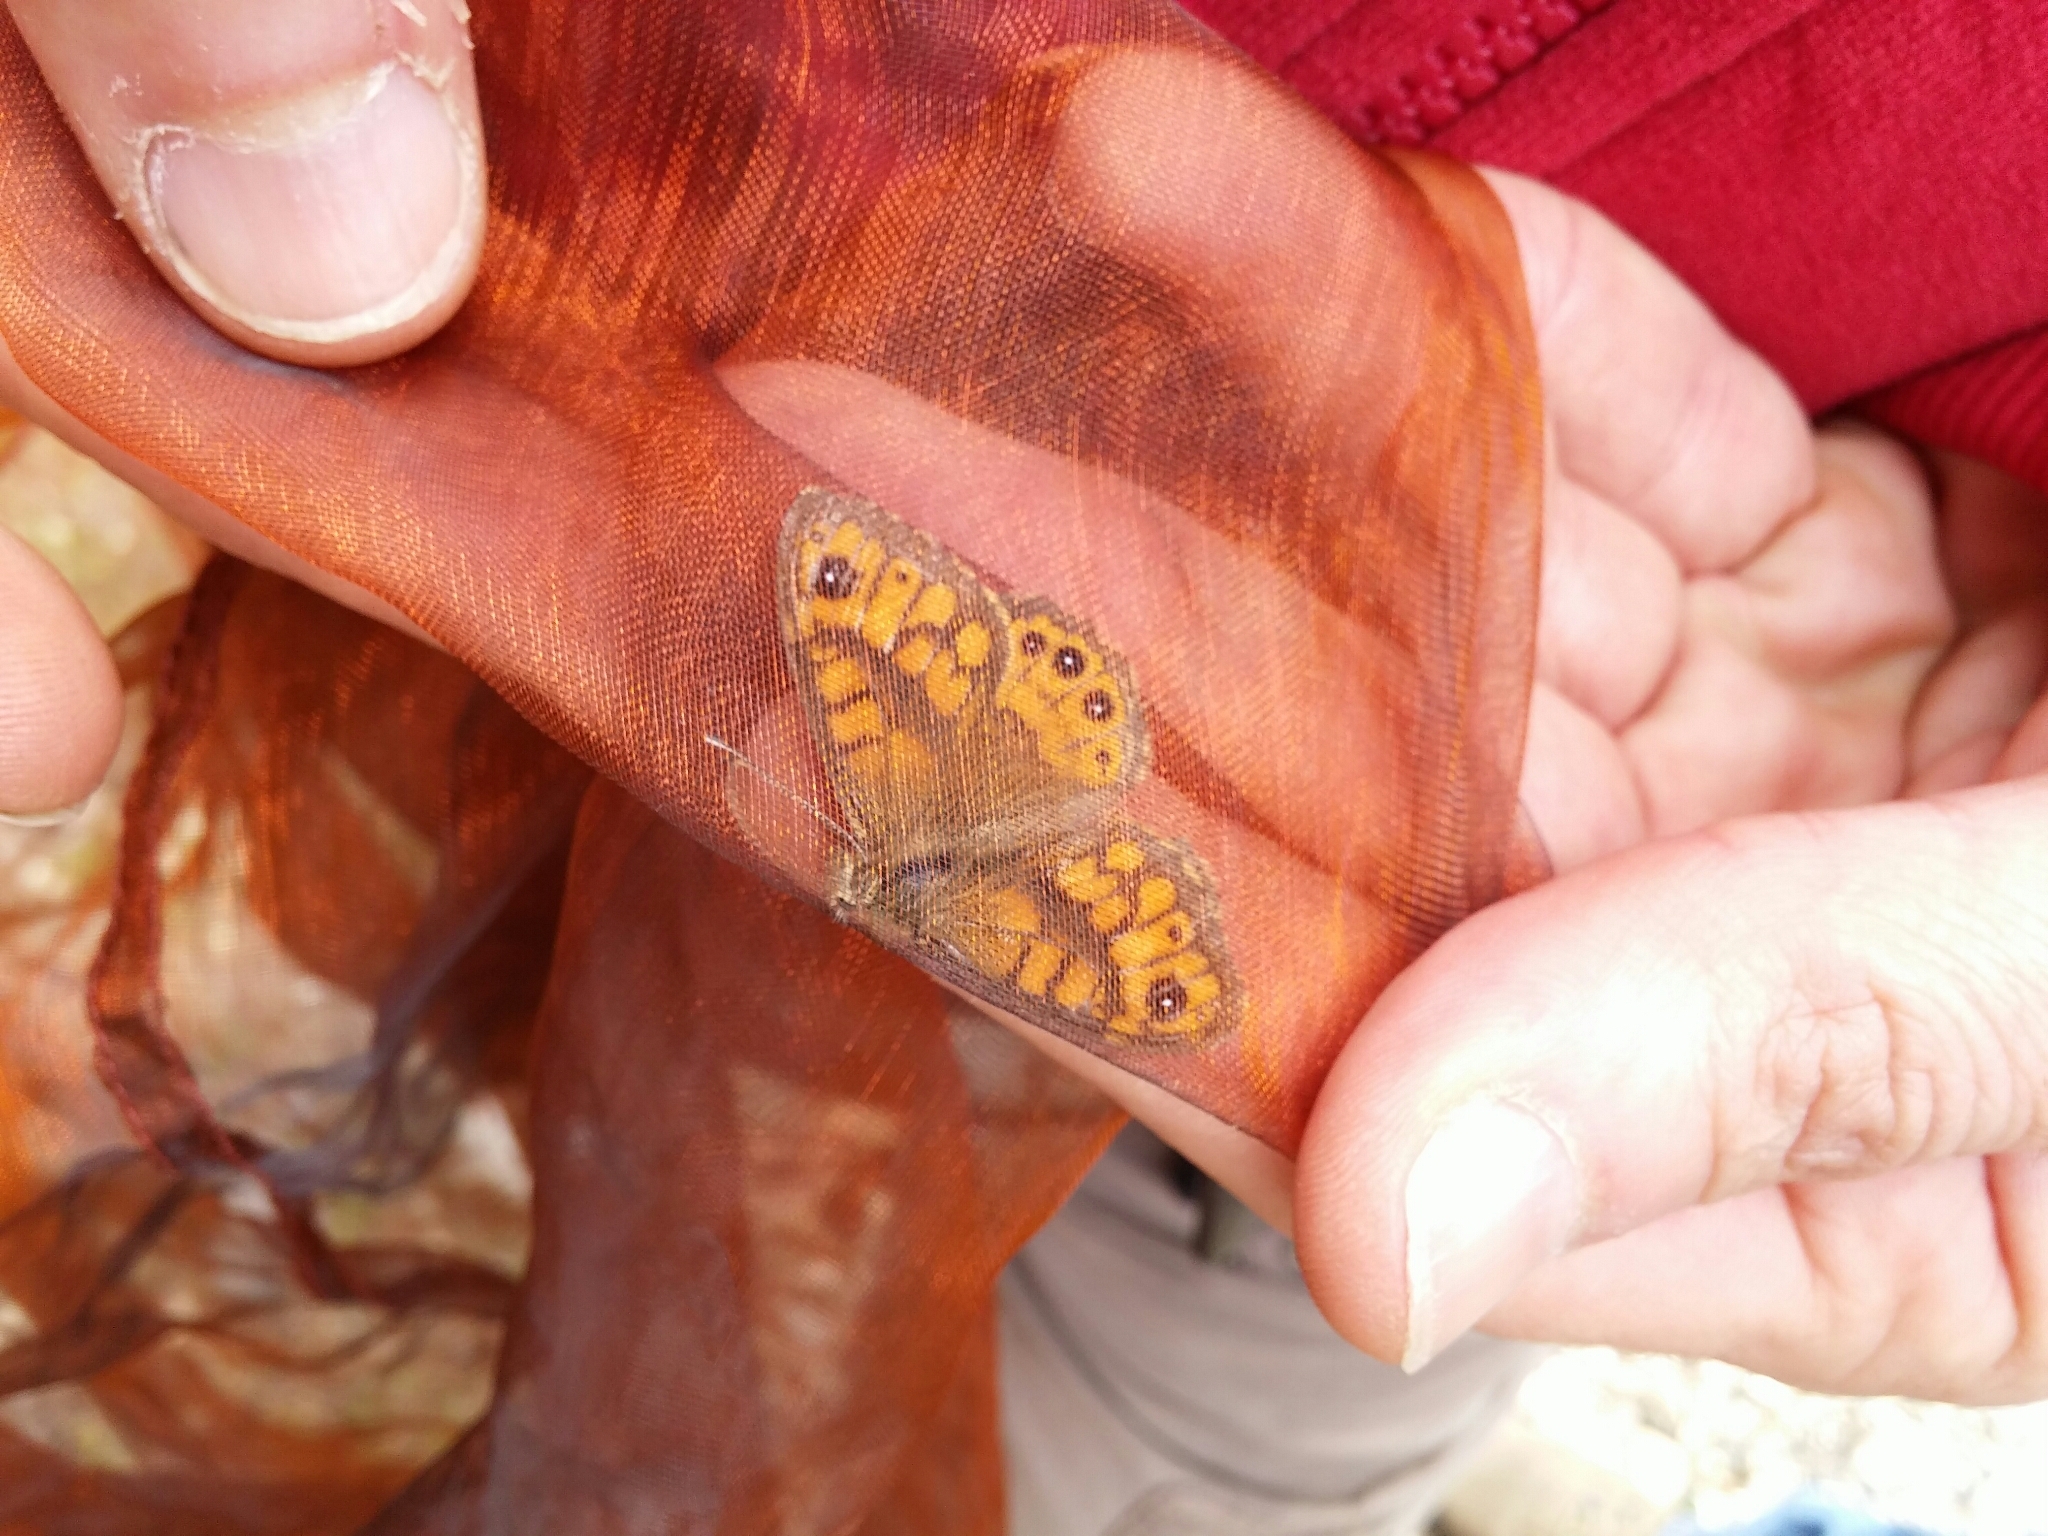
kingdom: Animalia
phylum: Arthropoda
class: Insecta
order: Lepidoptera
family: Nymphalidae
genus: Pararge
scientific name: Pararge Lasiommata megera
